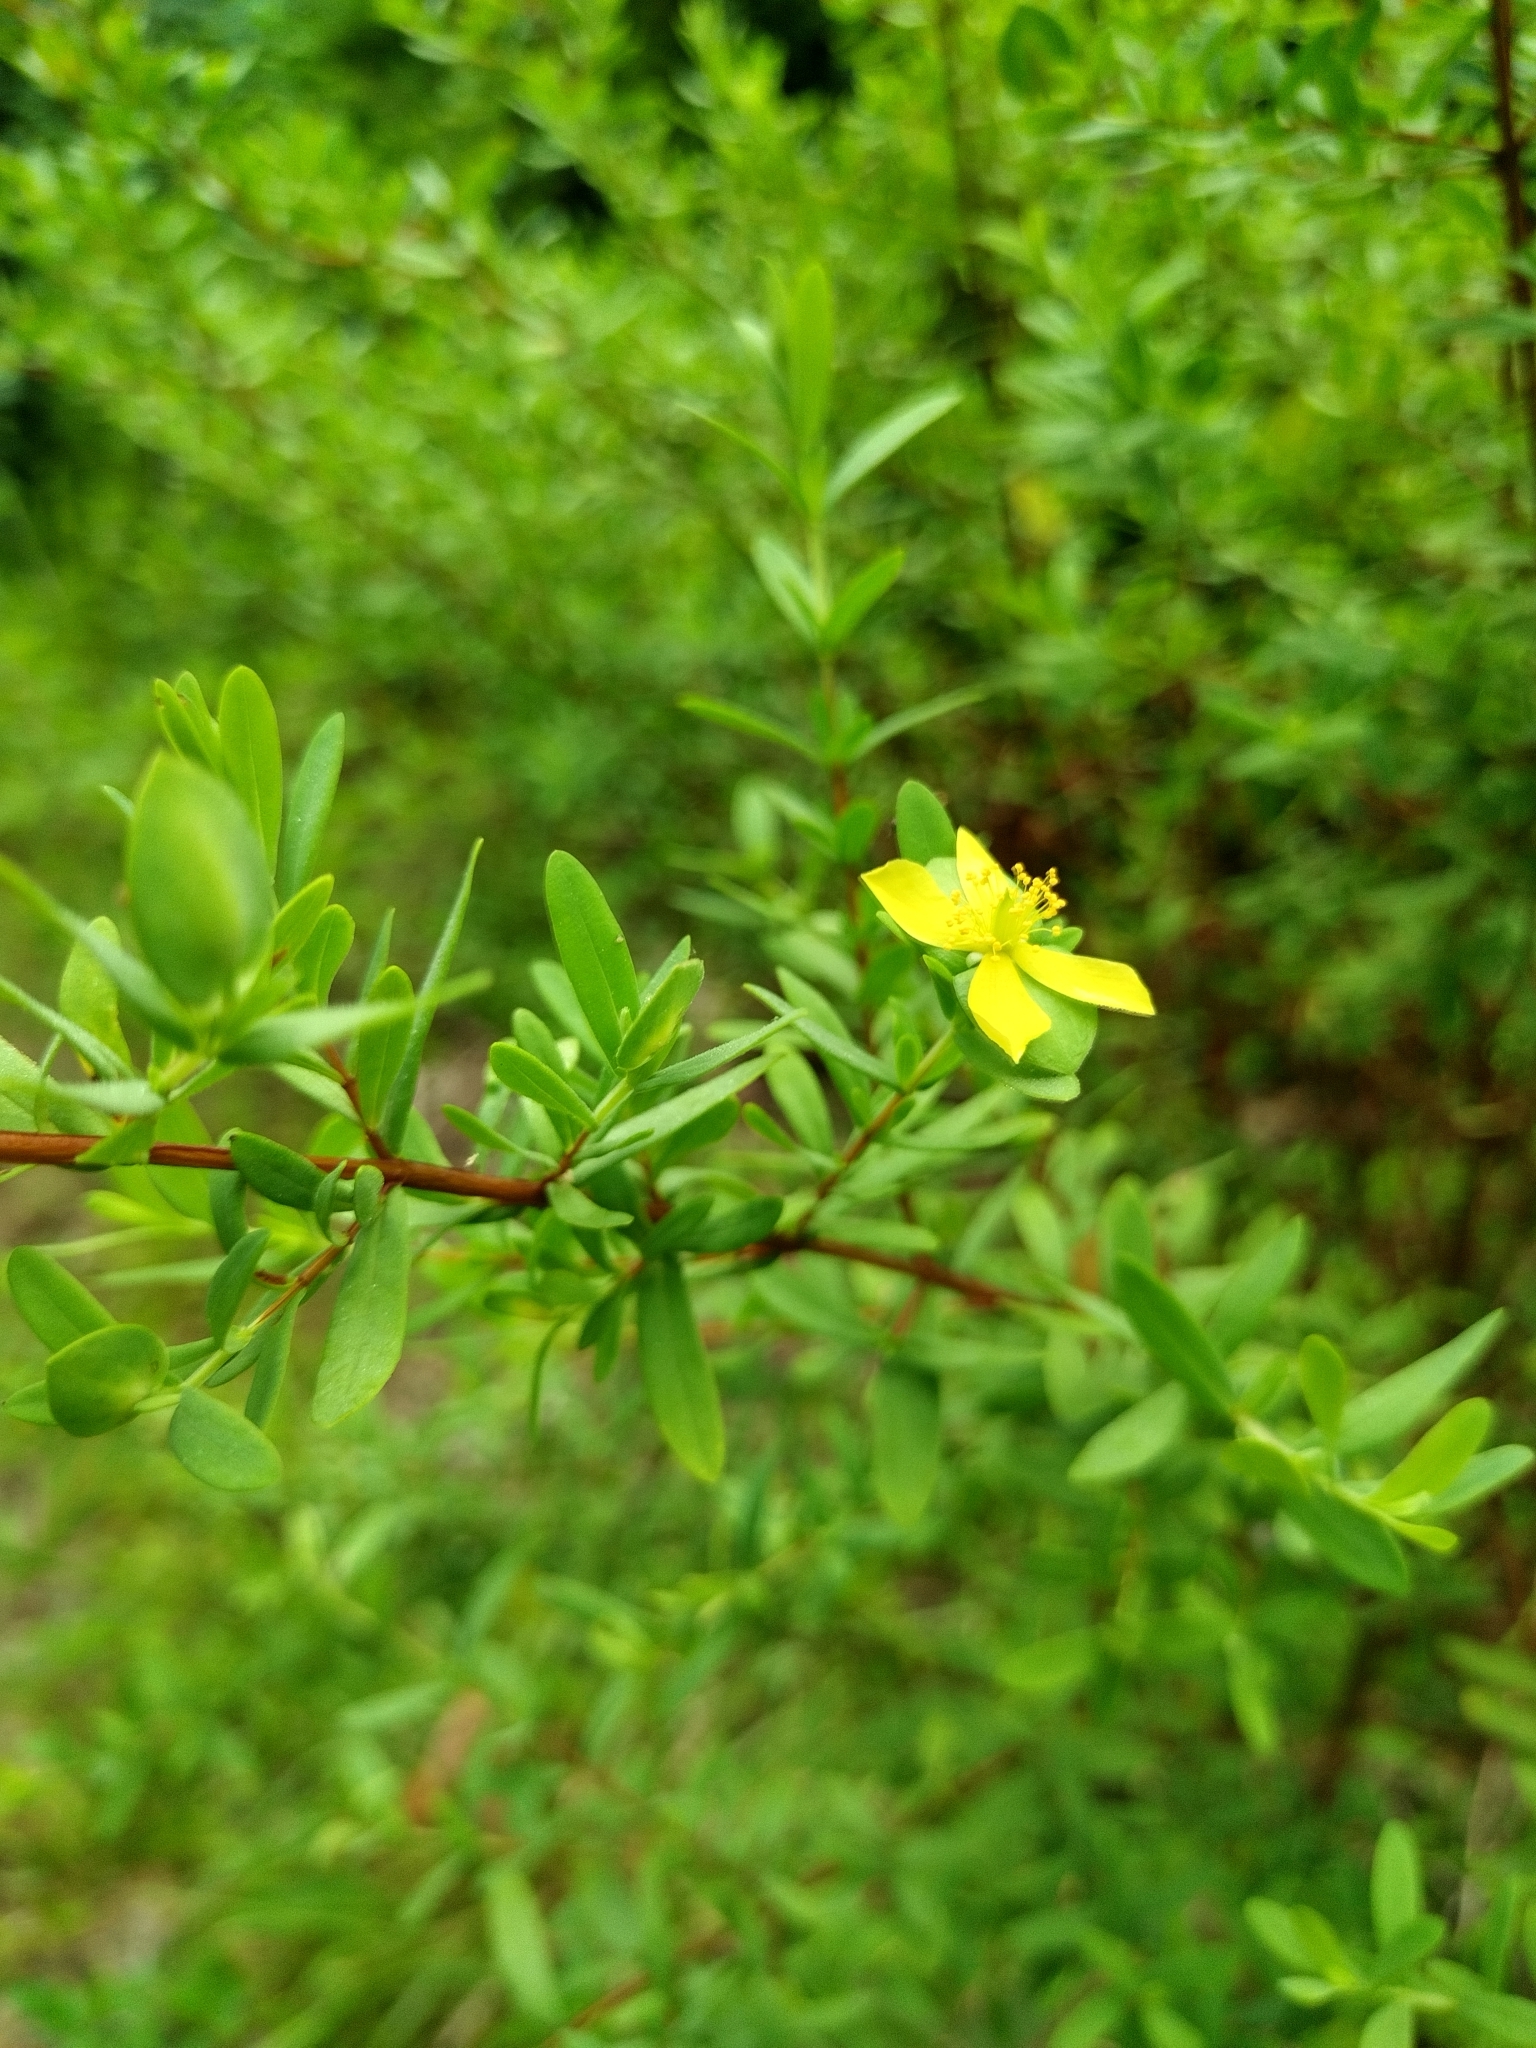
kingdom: Plantae
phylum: Tracheophyta
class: Magnoliopsida
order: Malpighiales
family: Hypericaceae
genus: Hypericum
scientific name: Hypericum hypericoides
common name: St. andrew's cross
